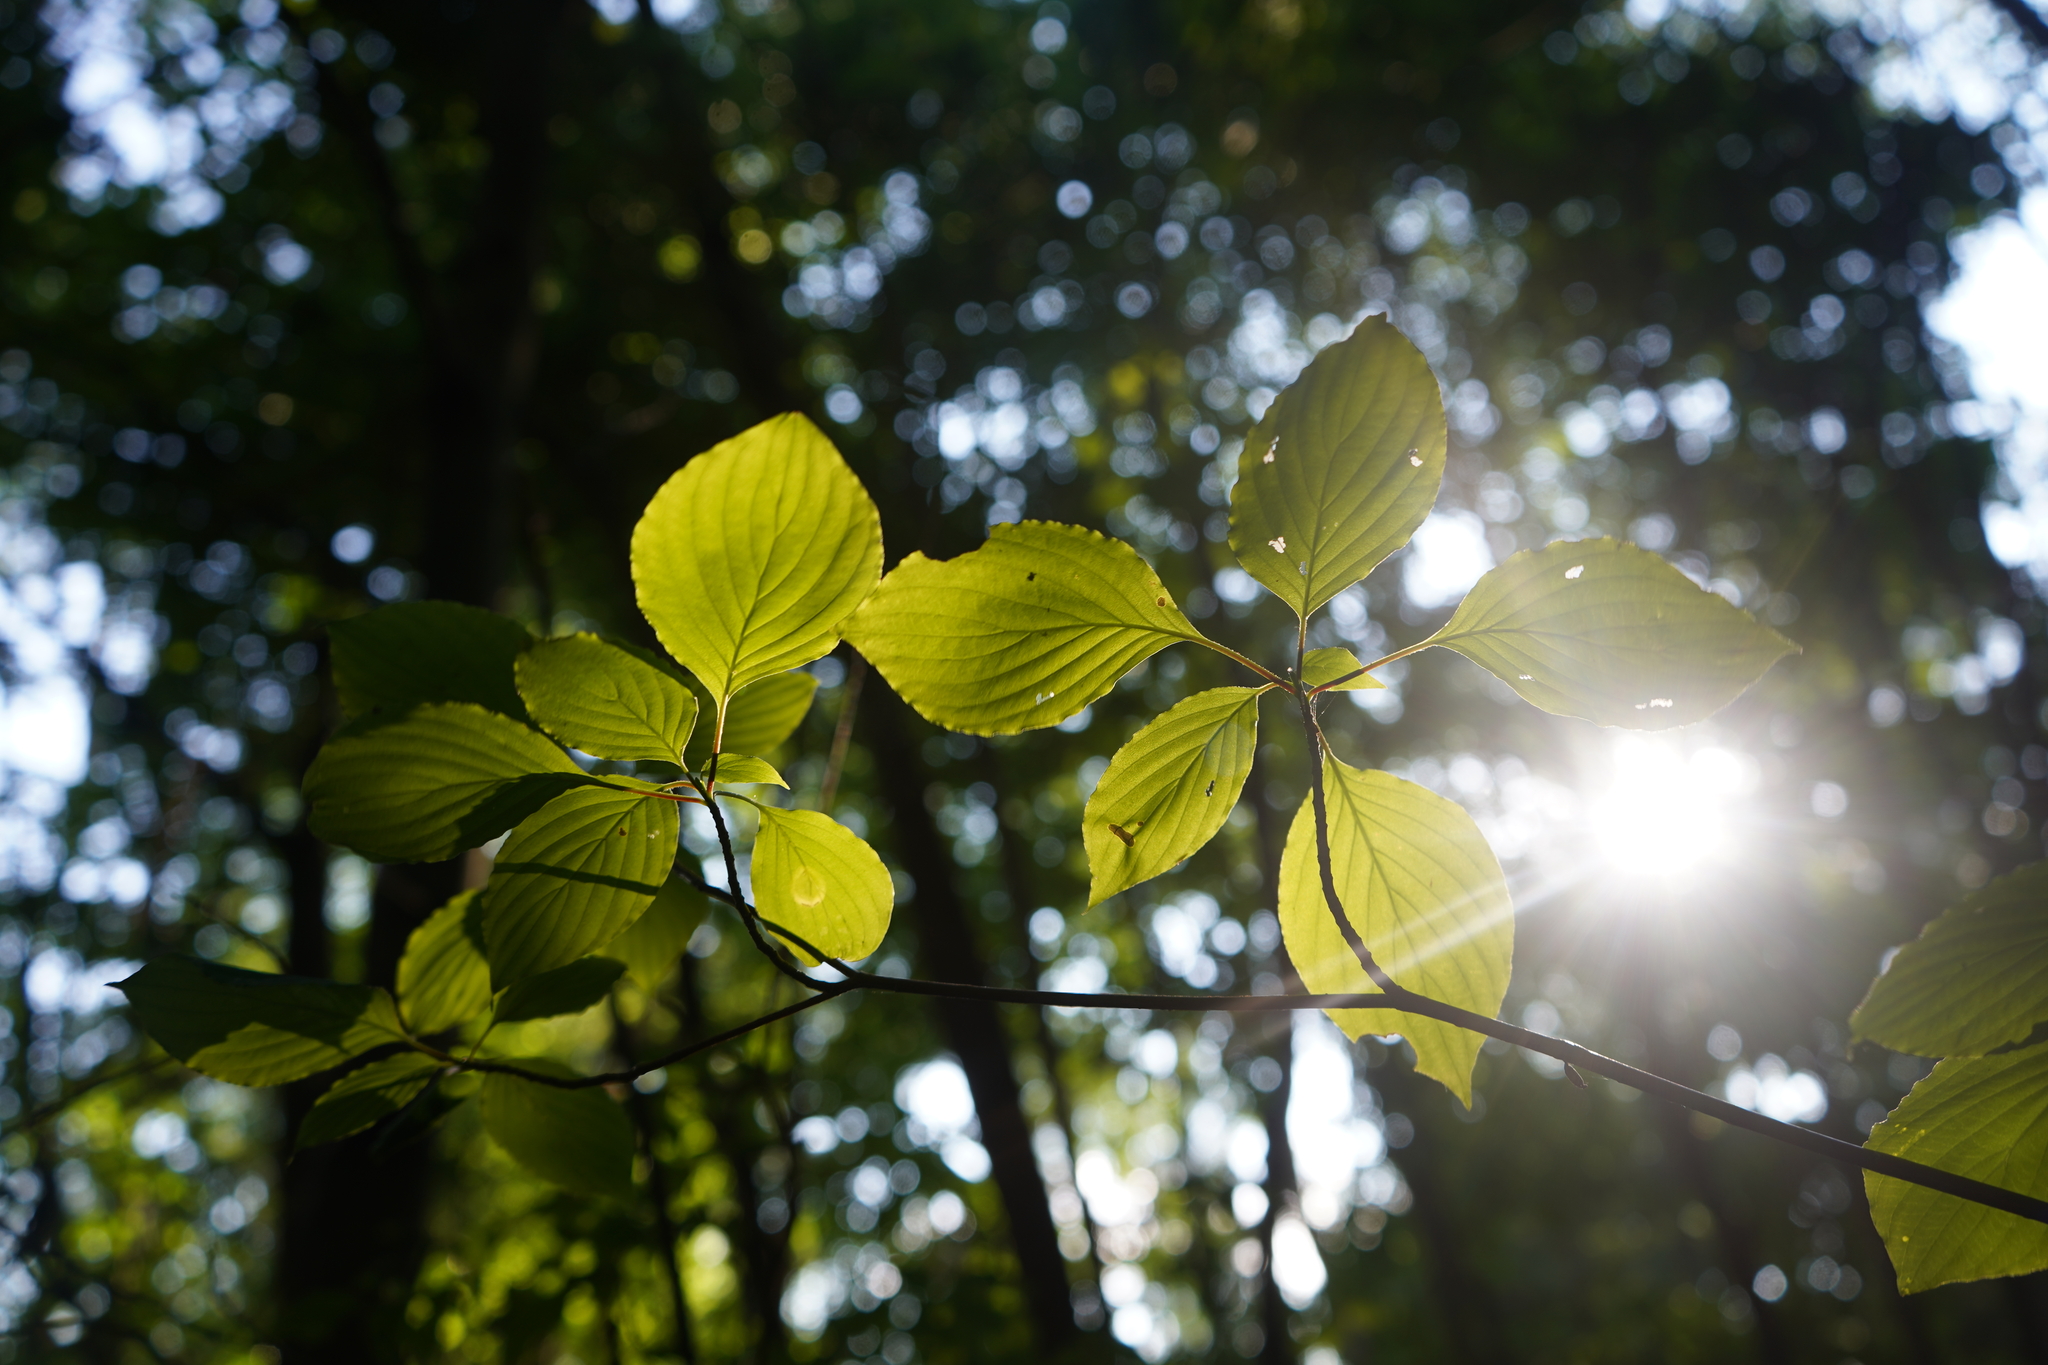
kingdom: Plantae
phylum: Tracheophyta
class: Magnoliopsida
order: Cornales
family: Cornaceae
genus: Cornus
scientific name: Cornus alternifolia
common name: Pagoda dogwood
